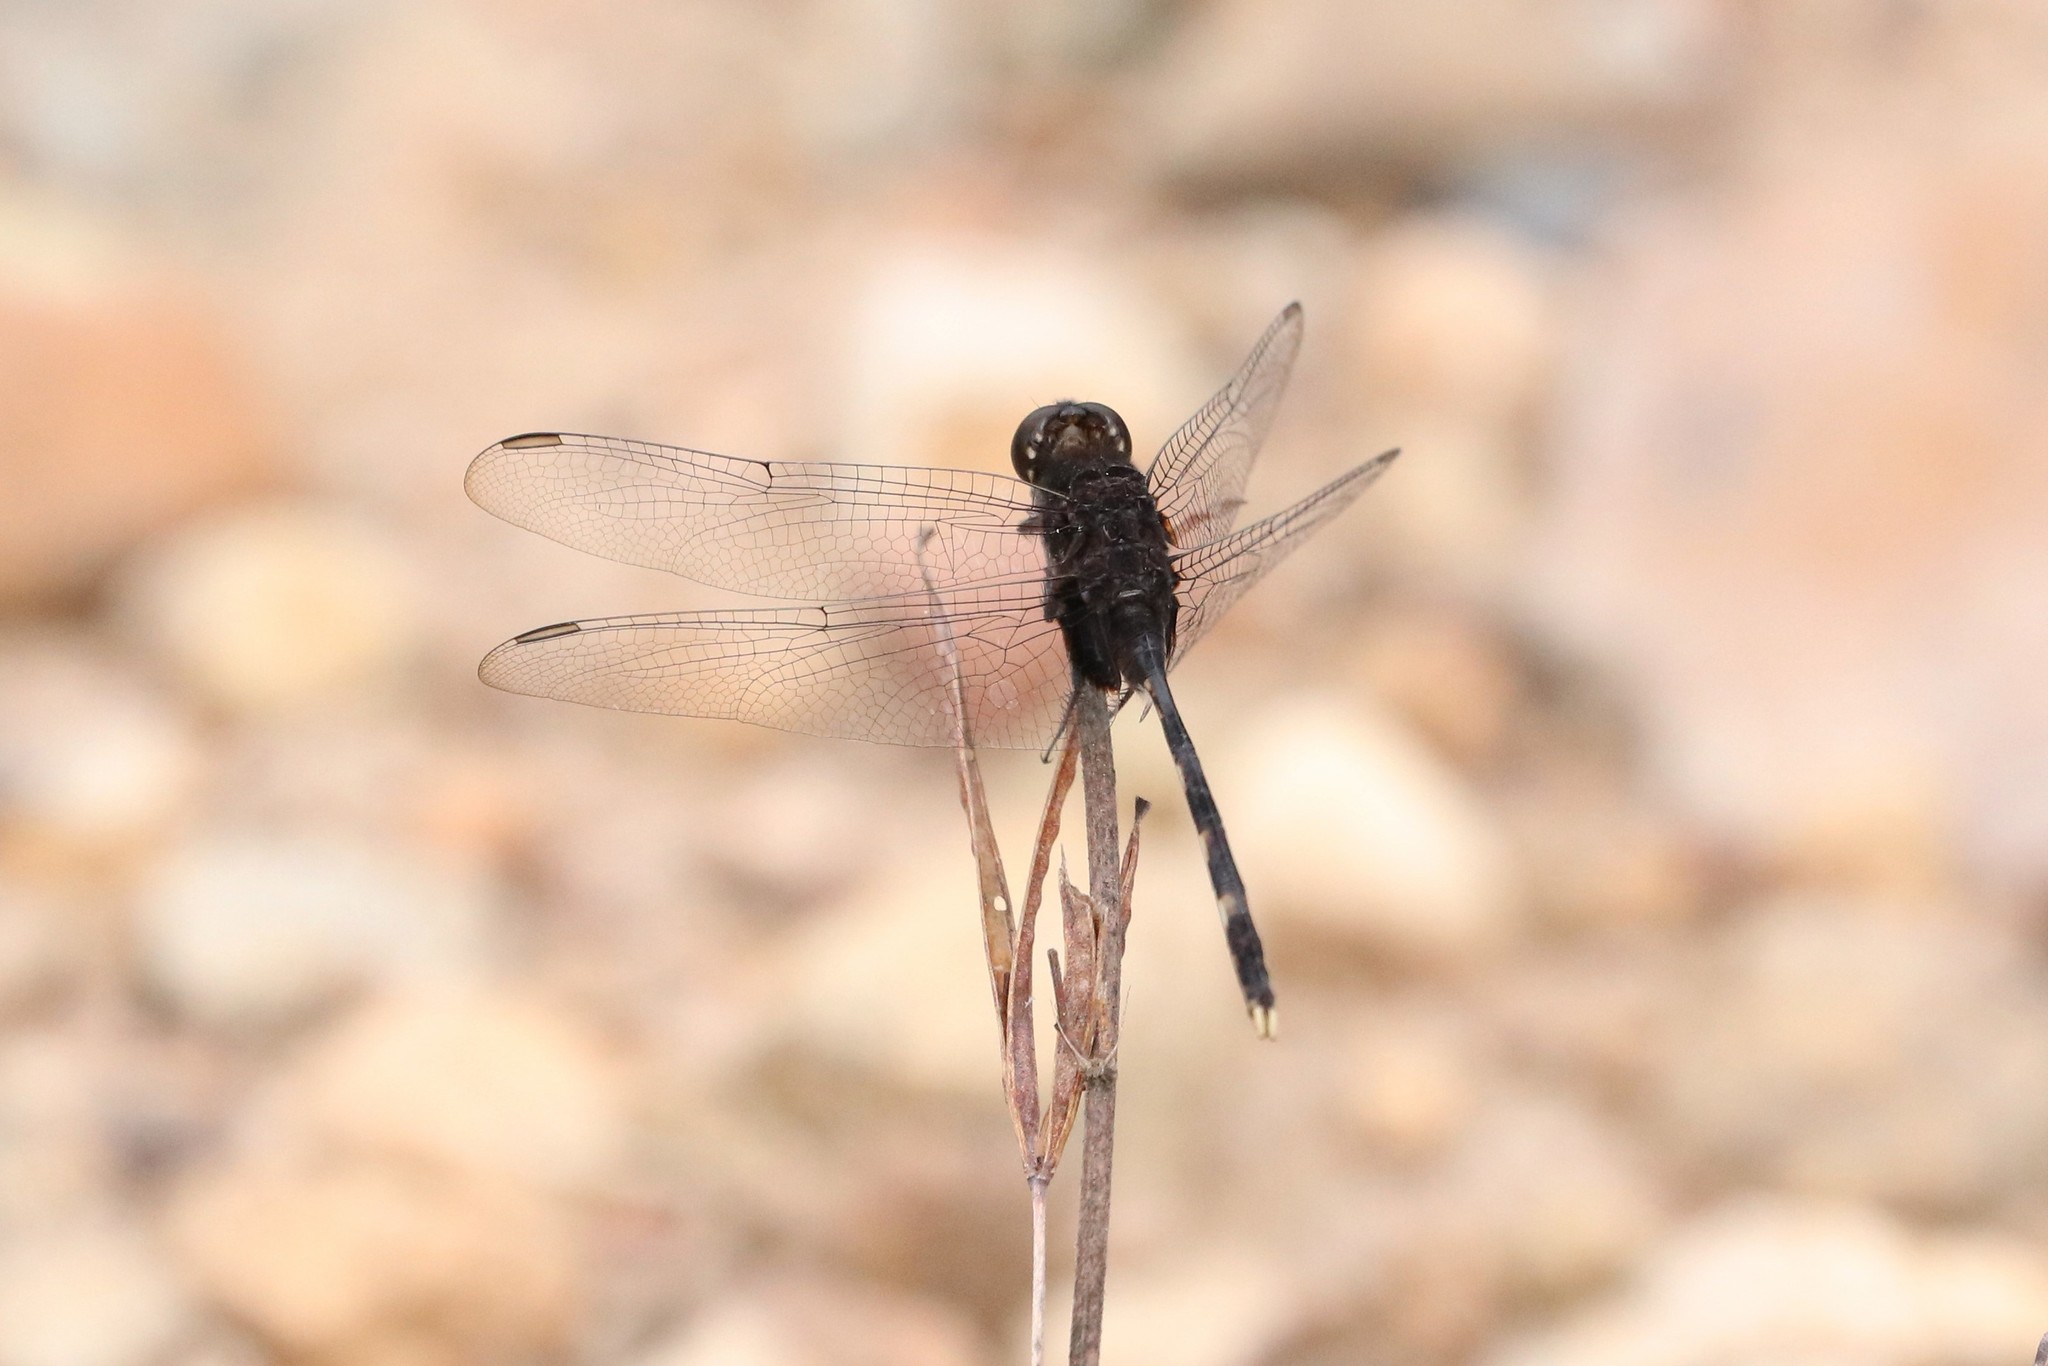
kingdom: Animalia
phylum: Arthropoda
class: Insecta
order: Odonata
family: Libellulidae
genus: Erythemis
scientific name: Erythemis plebeja
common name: Pin-tailed pondhawk
